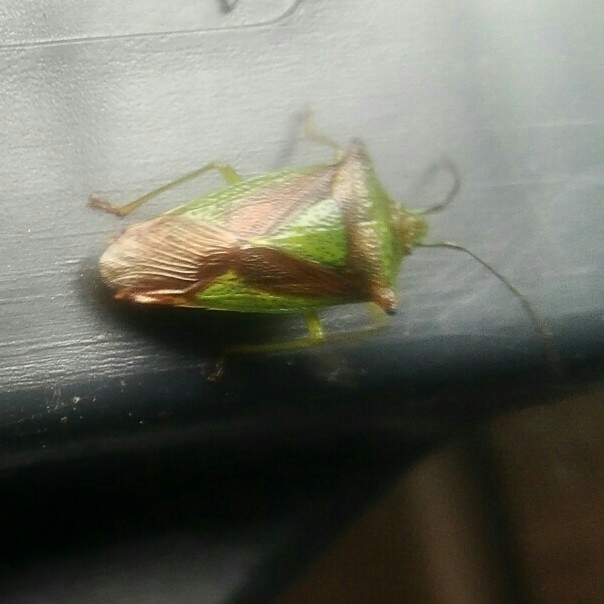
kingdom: Animalia
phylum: Arthropoda
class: Insecta
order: Hemiptera
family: Acanthosomatidae
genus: Acanthosoma
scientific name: Acanthosoma haemorrhoidale
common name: Hawthorn shieldbug
